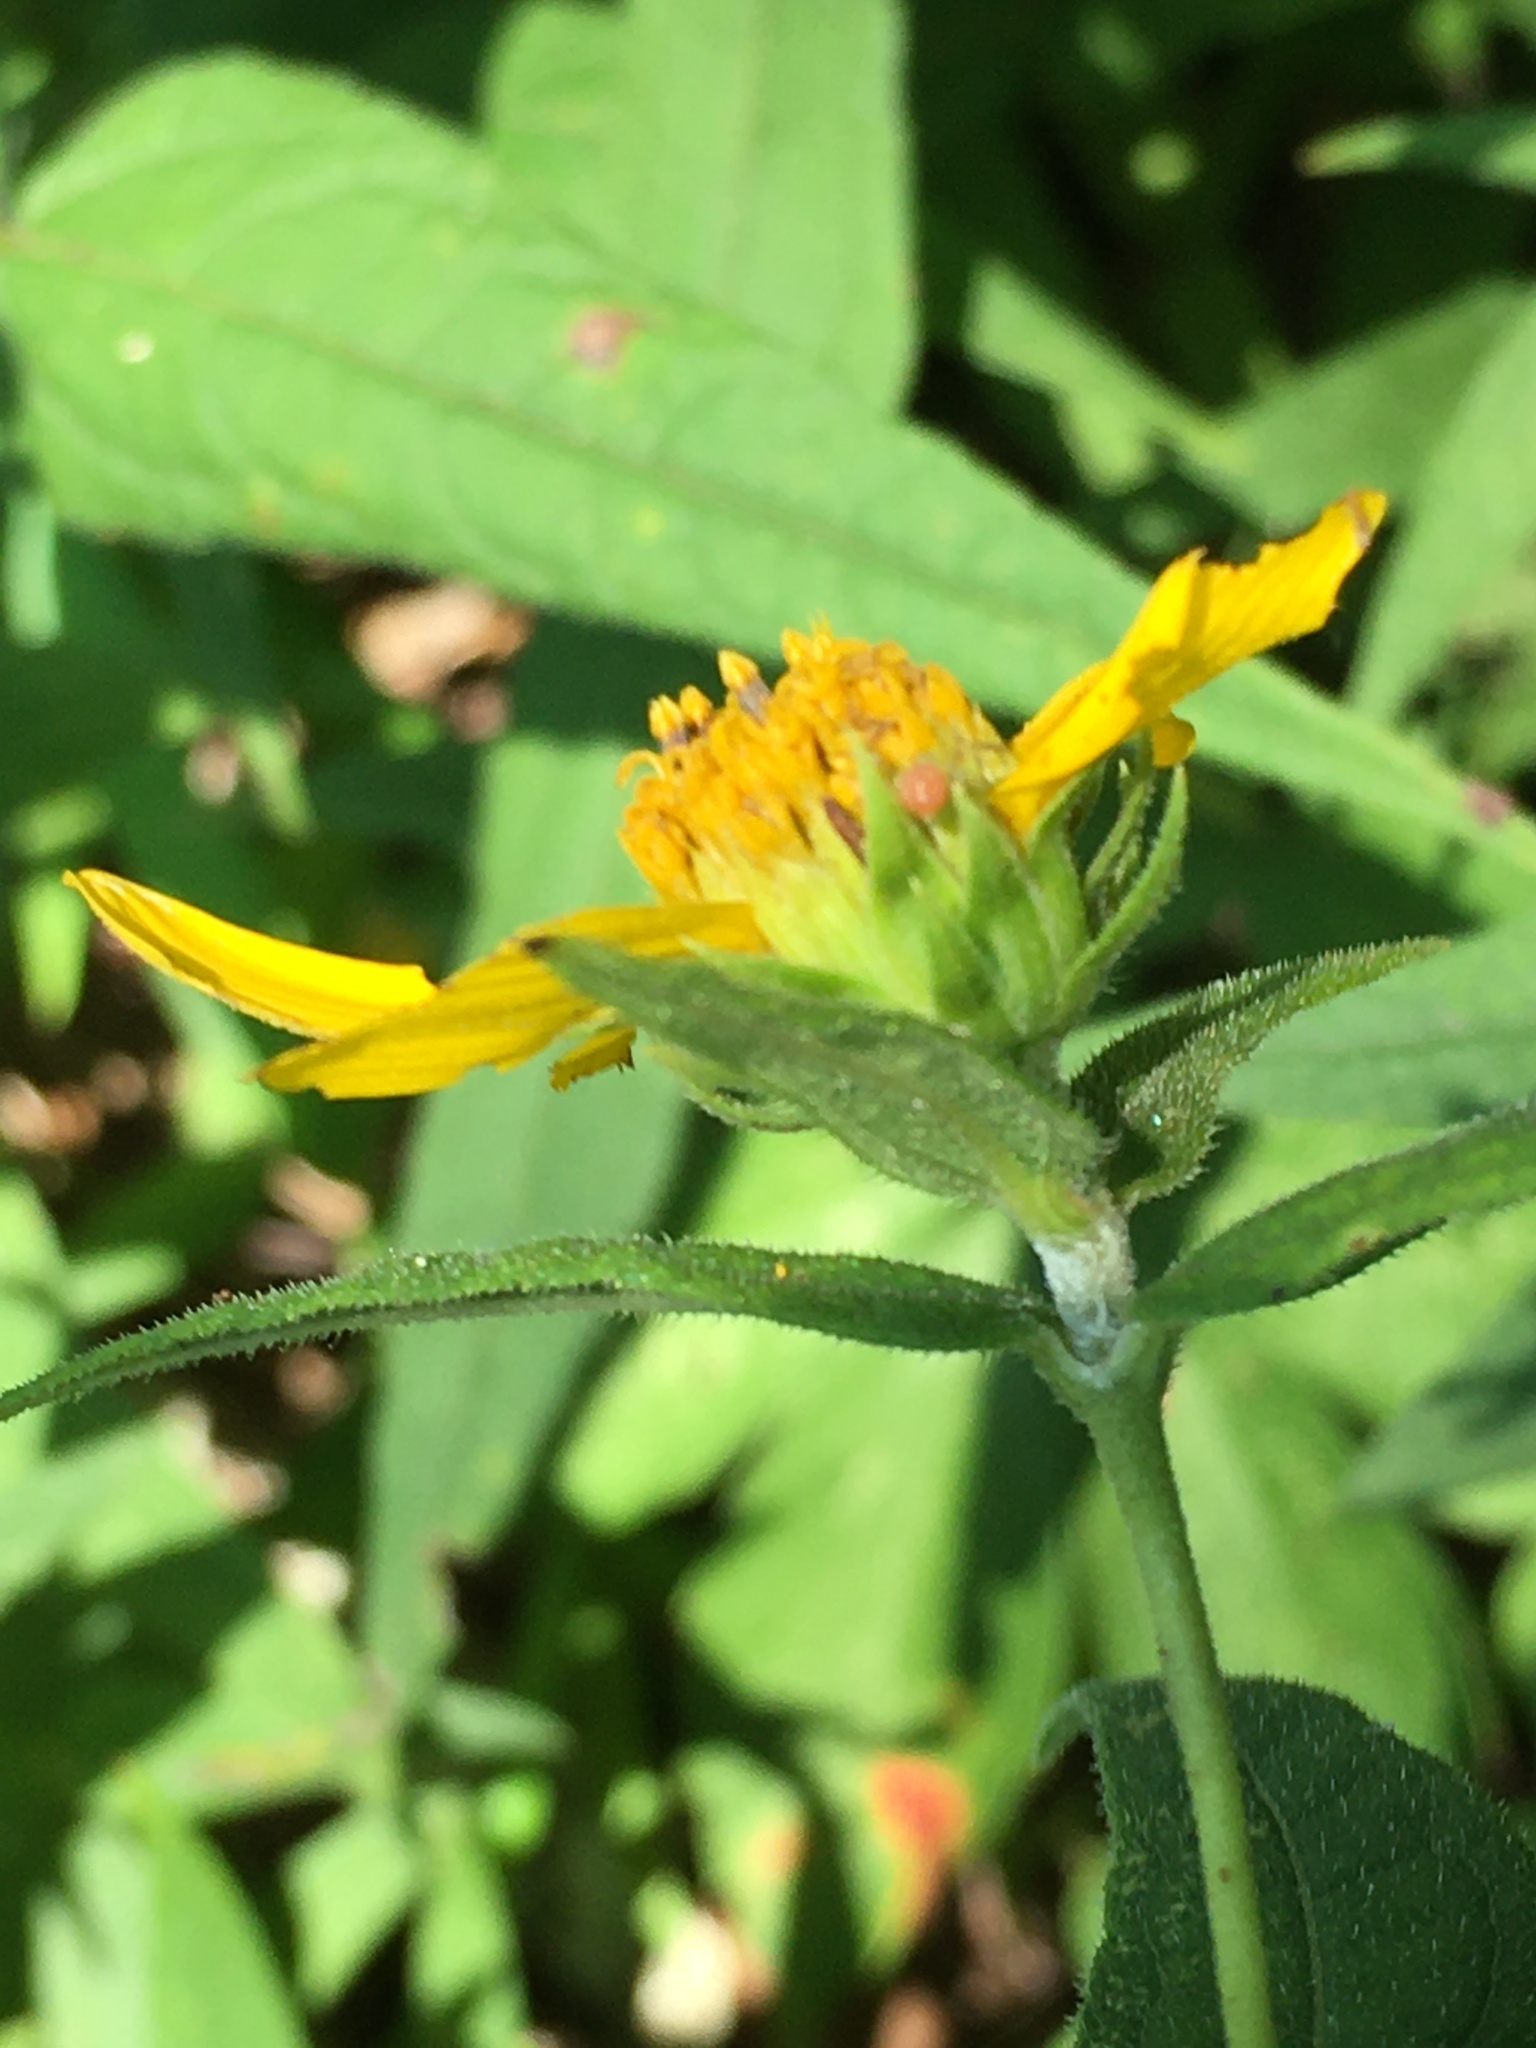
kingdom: Plantae
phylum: Tracheophyta
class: Magnoliopsida
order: Asterales
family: Asteraceae
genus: Helianthus
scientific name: Helianthus divaricatus
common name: Divergent sunflower
